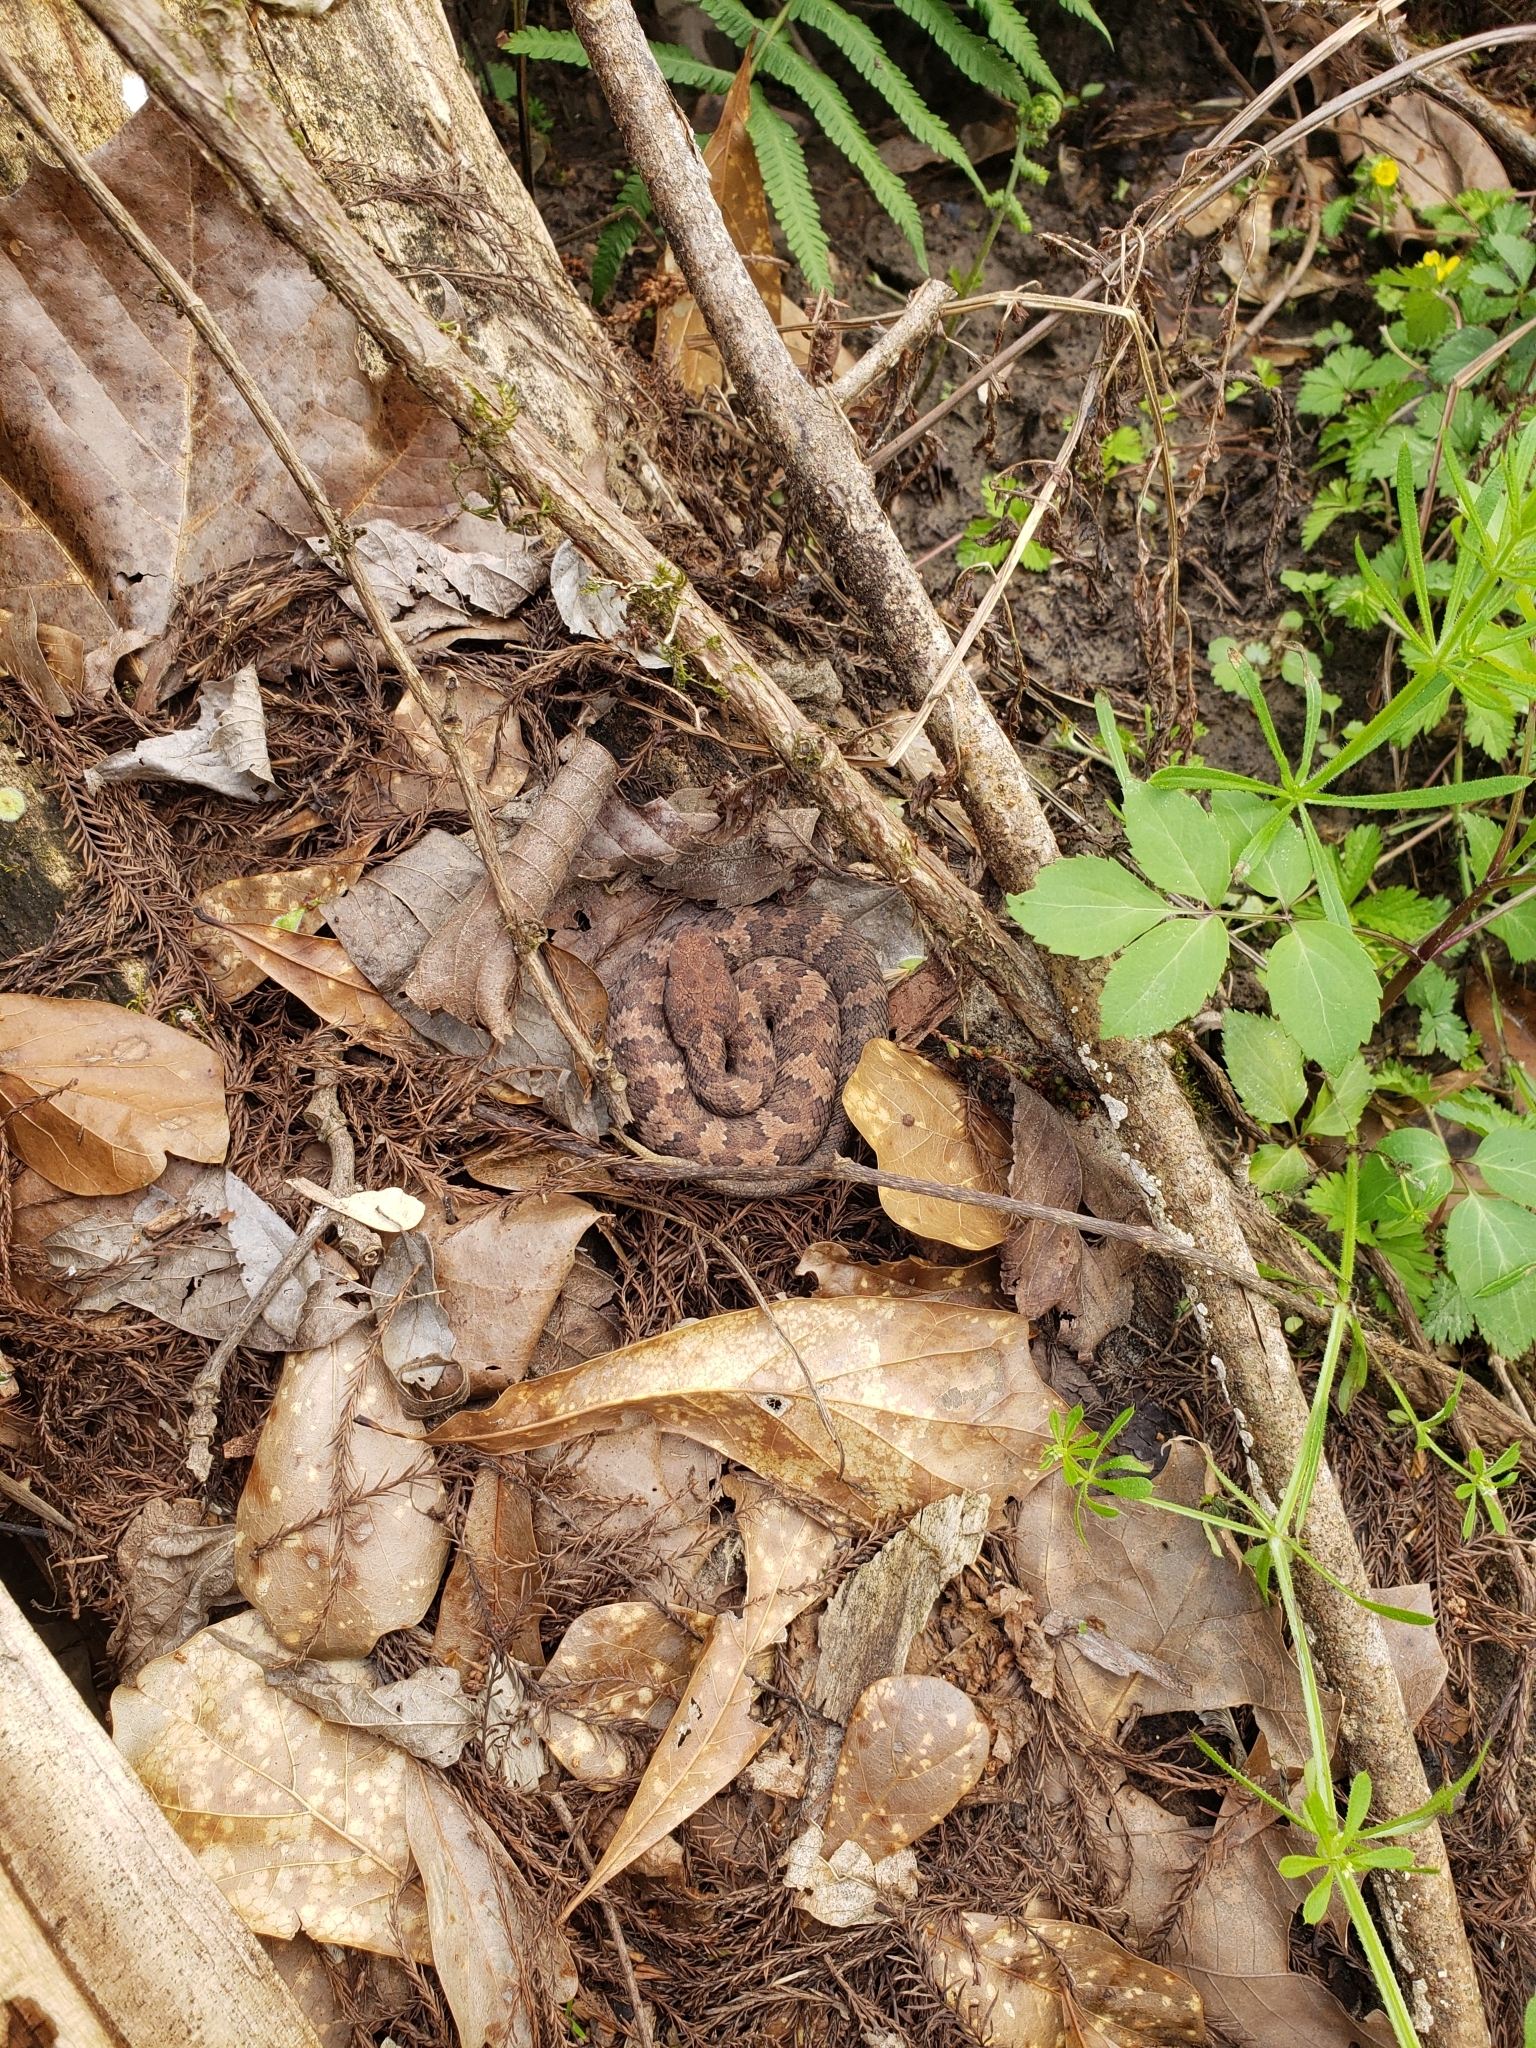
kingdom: Animalia
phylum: Chordata
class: Squamata
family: Viperidae
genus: Agkistrodon
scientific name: Agkistrodon piscivorus
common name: Cottonmouth
